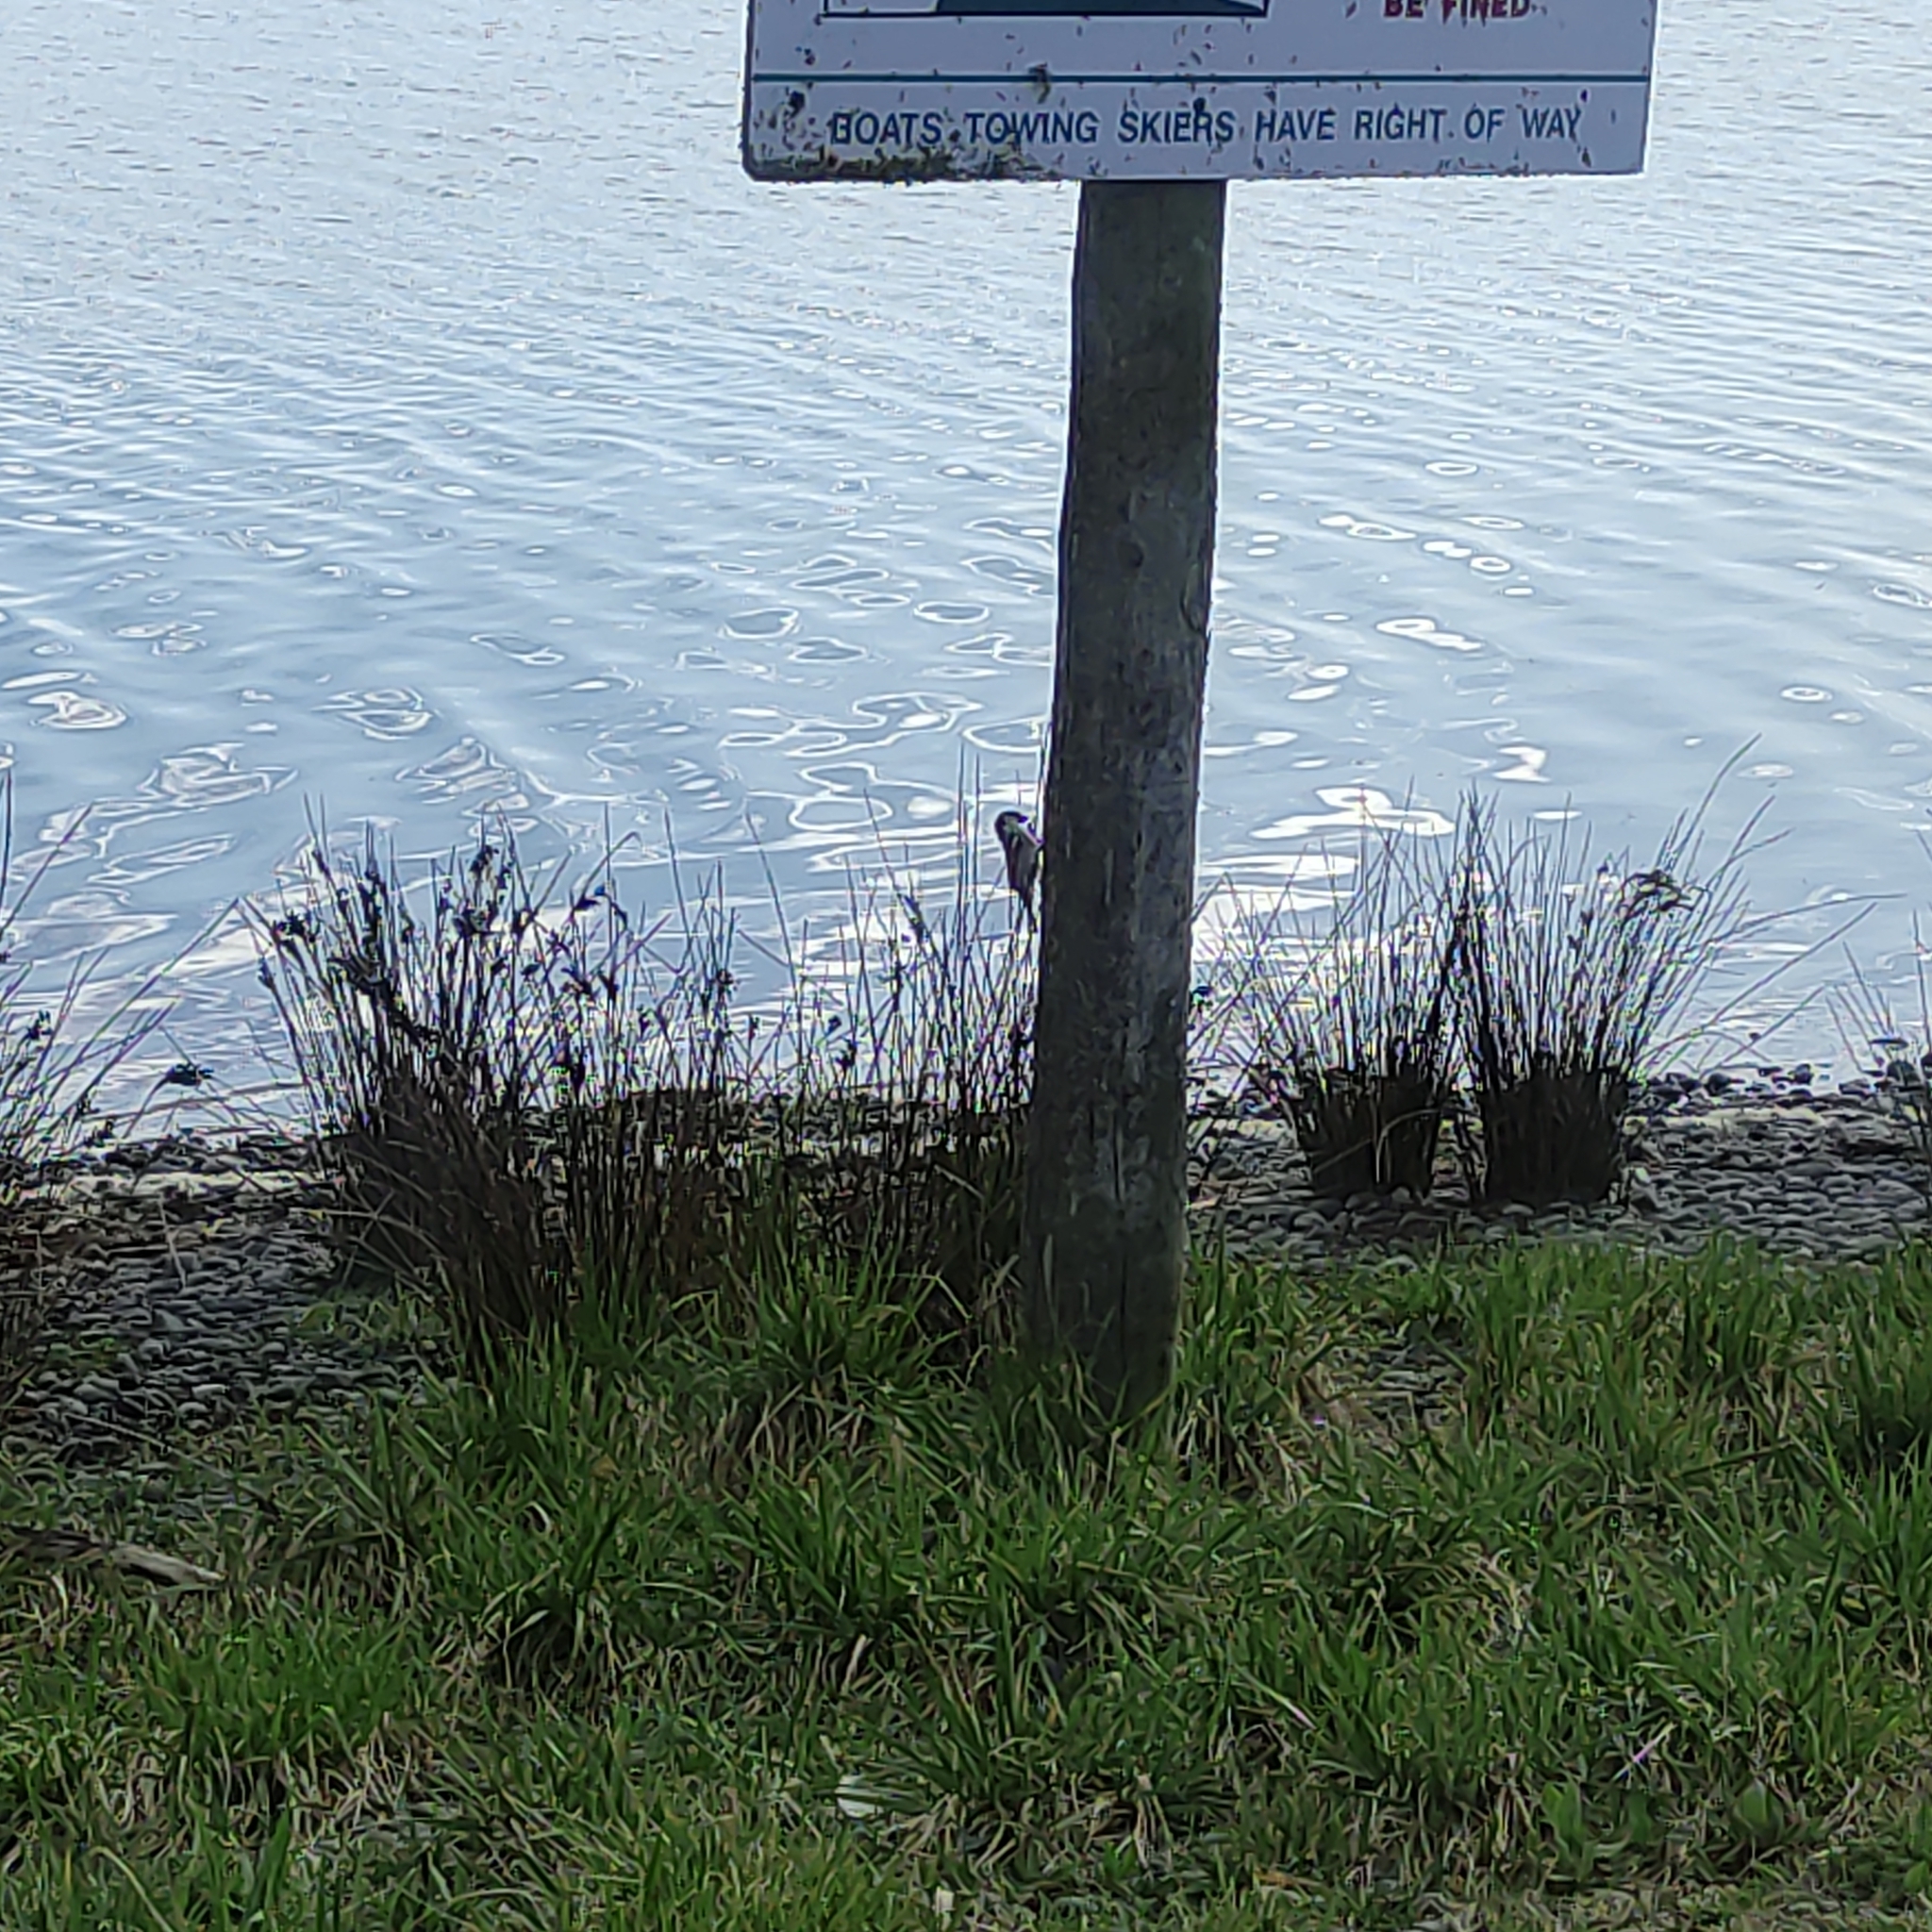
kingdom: Animalia
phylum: Chordata
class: Aves
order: Passeriformes
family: Passeridae
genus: Passer
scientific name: Passer domesticus
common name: House sparrow
